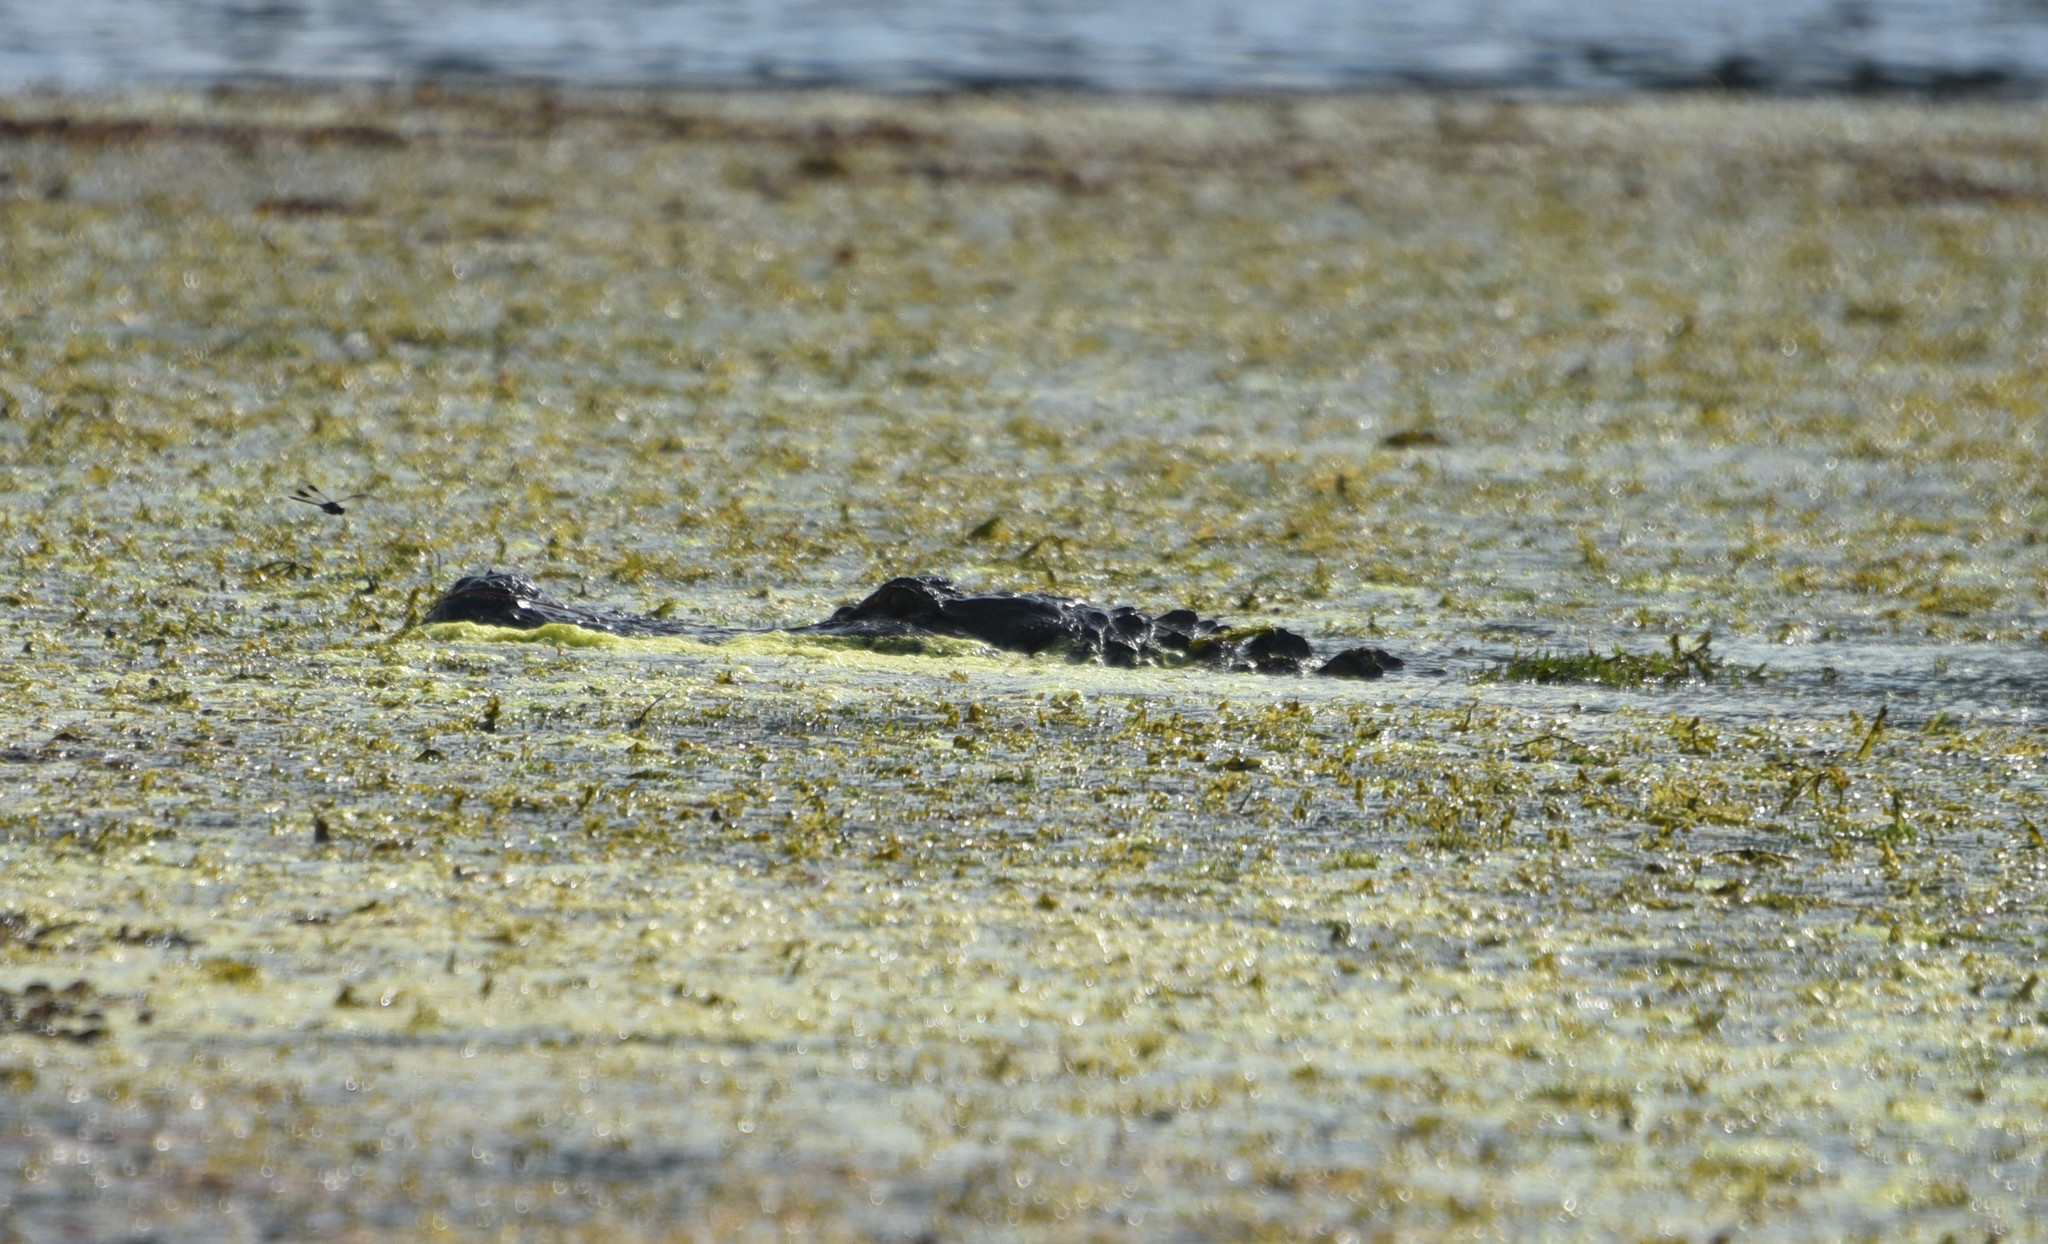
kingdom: Animalia
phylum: Chordata
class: Crocodylia
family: Alligatoridae
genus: Alligator
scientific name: Alligator mississippiensis
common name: American alligator
